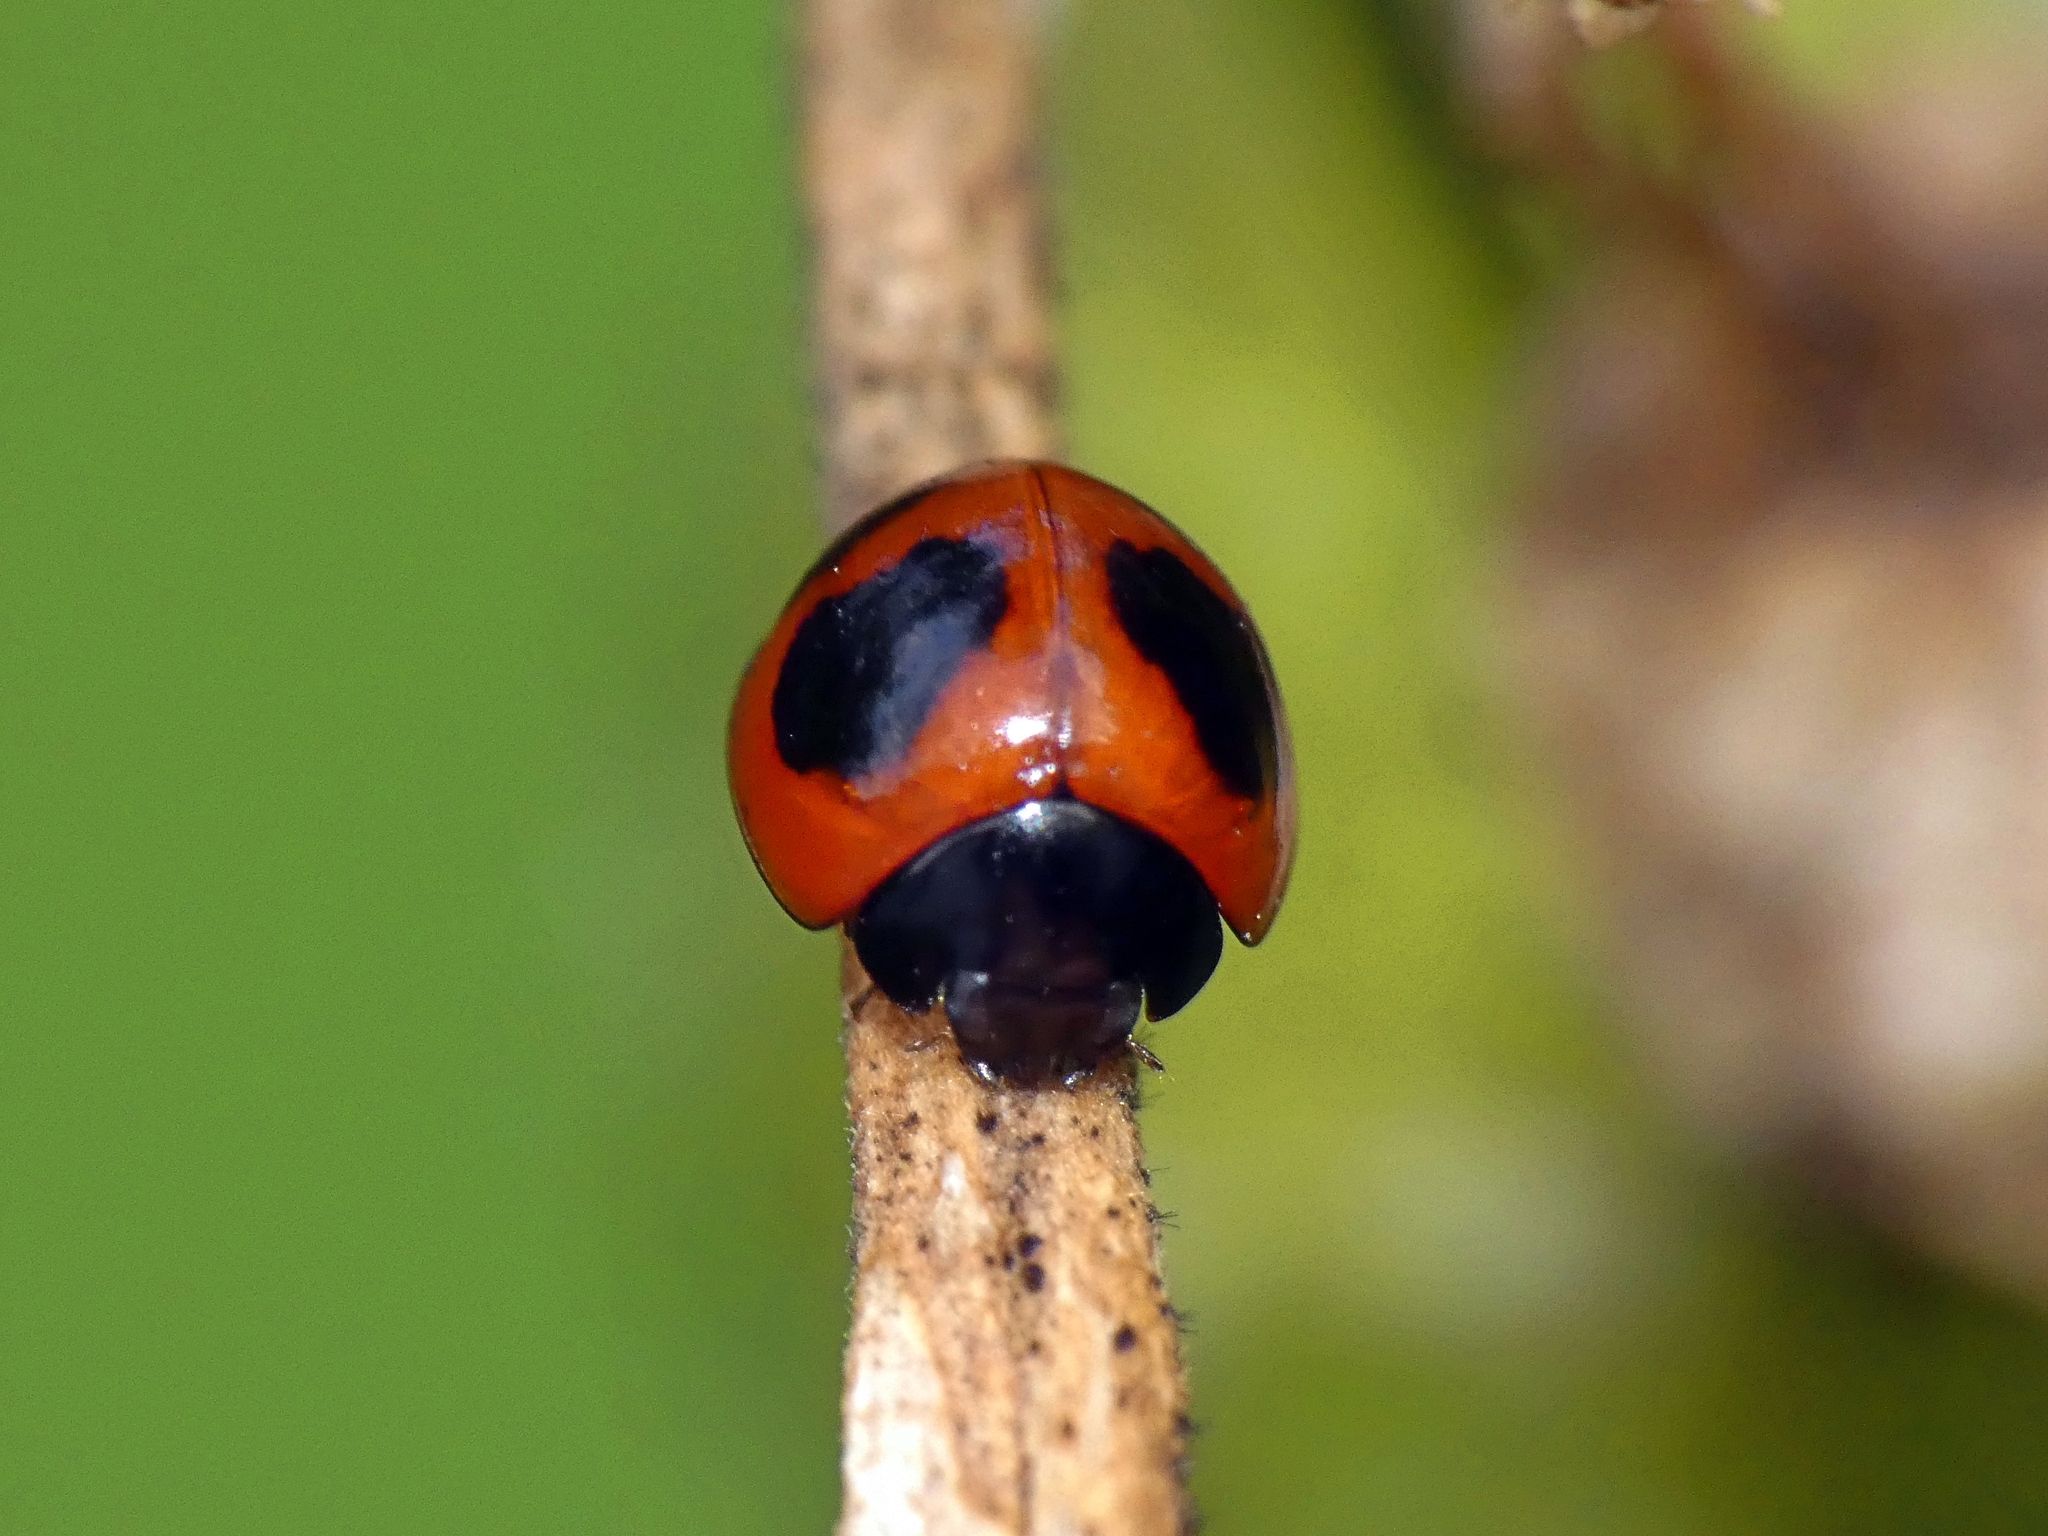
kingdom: Animalia
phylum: Arthropoda
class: Insecta
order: Coleoptera
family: Coccinellidae
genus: Exochomus
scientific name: Exochomus childreni
